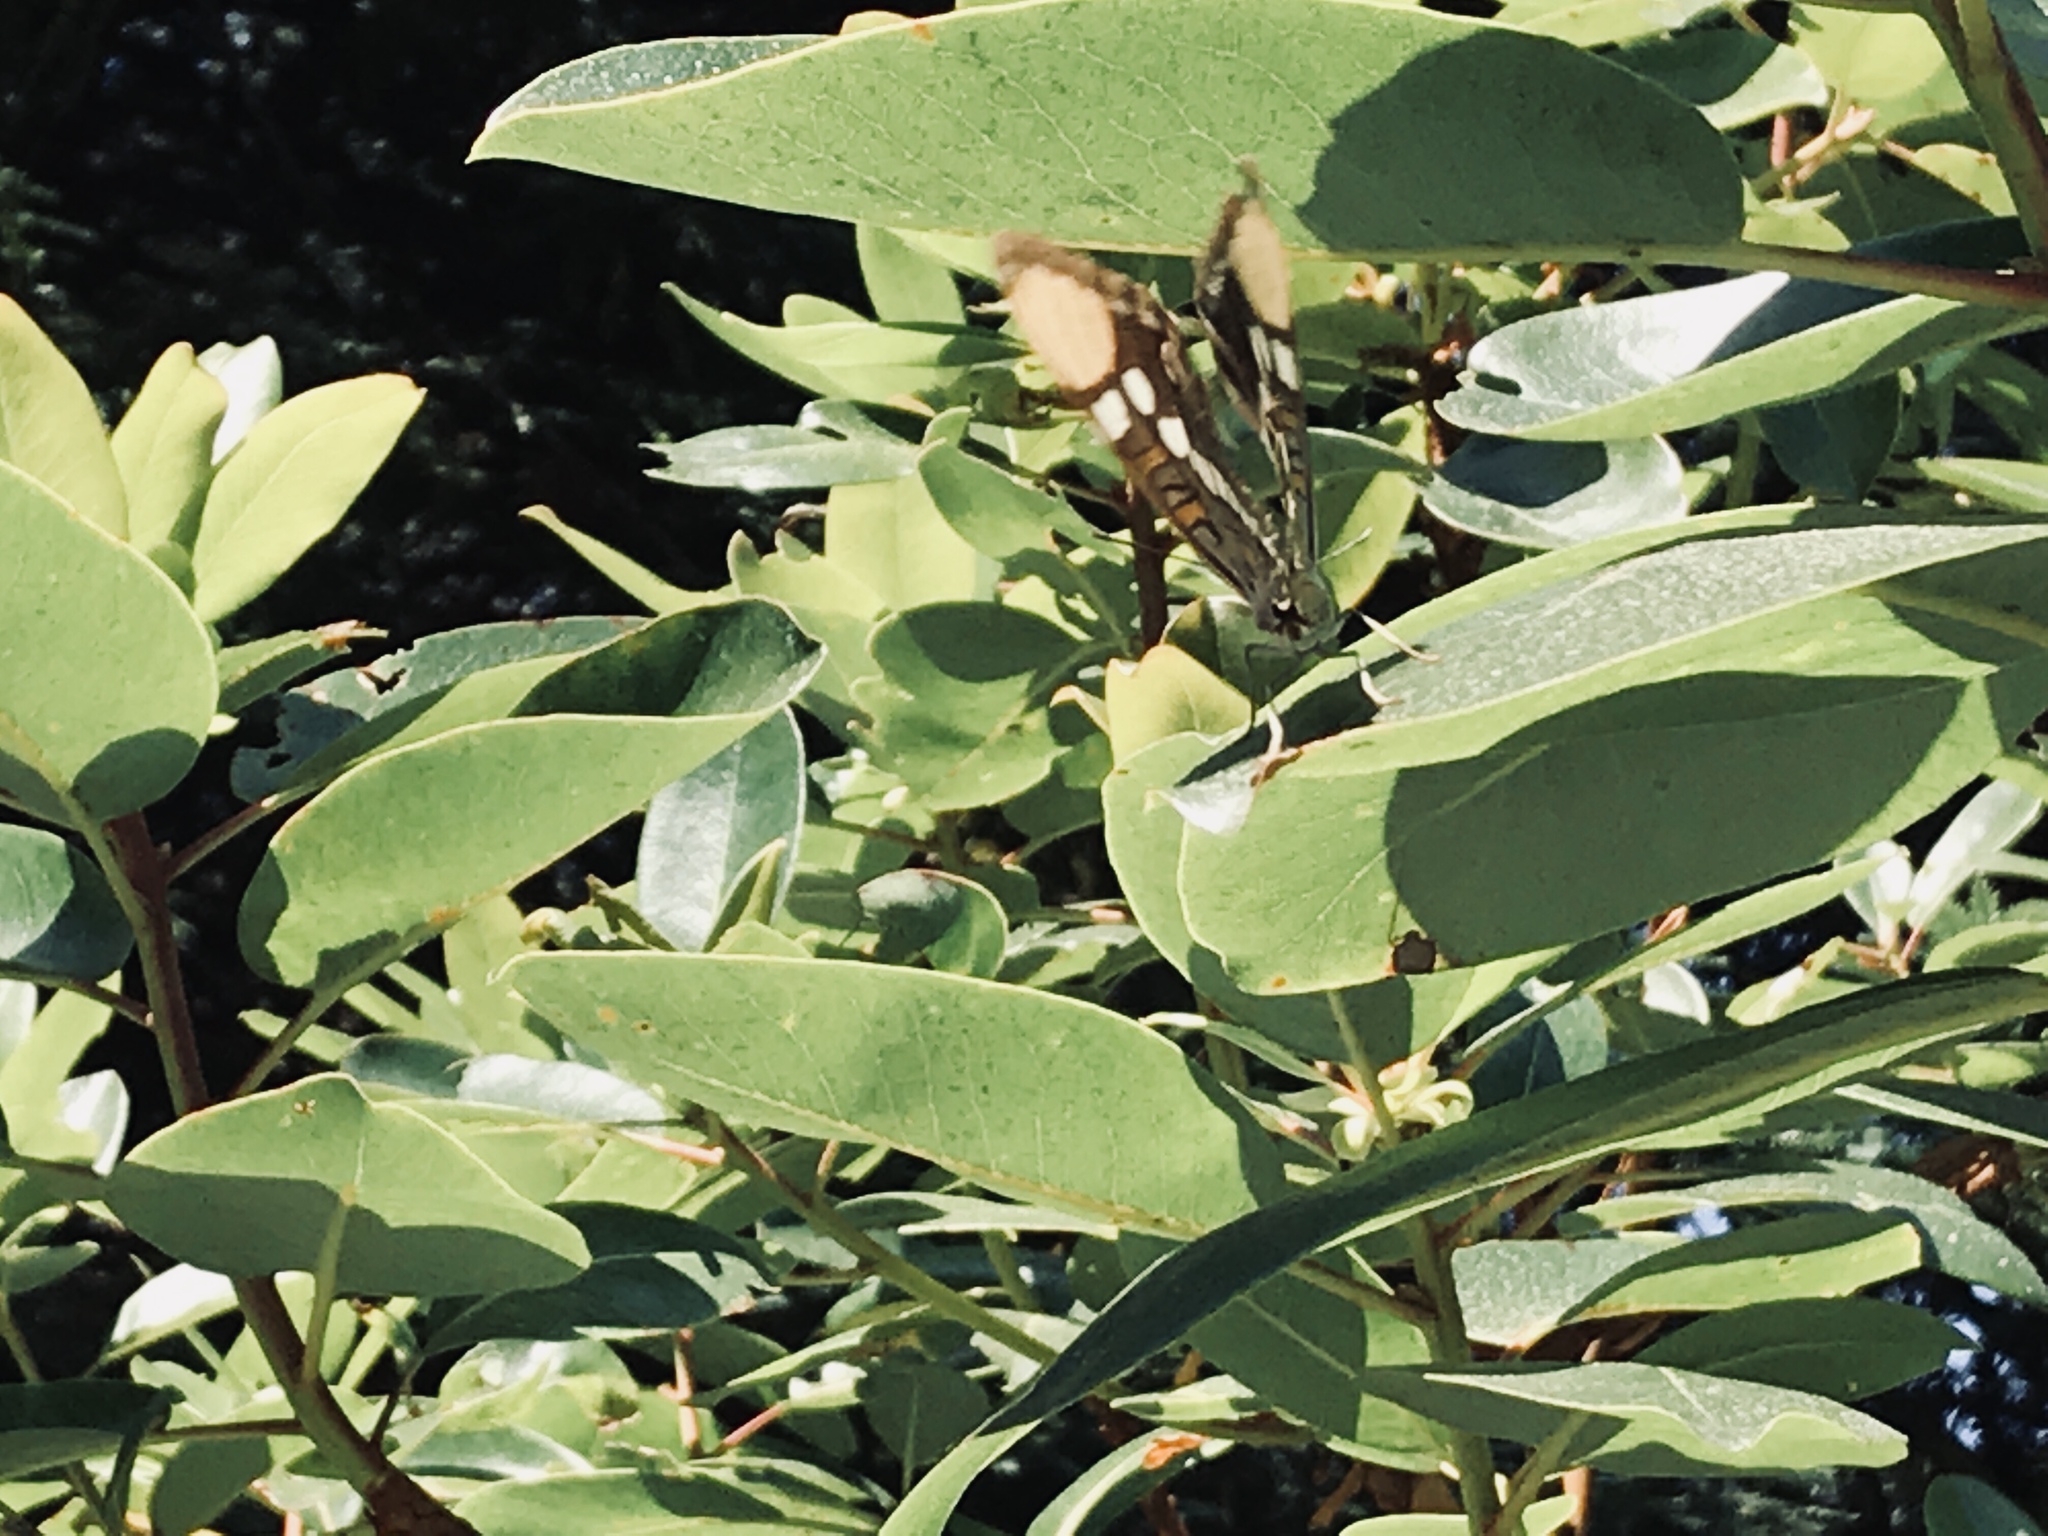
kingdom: Animalia
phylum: Arthropoda
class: Insecta
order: Lepidoptera
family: Nymphalidae
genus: Limenitis
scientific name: Limenitis bredowii
